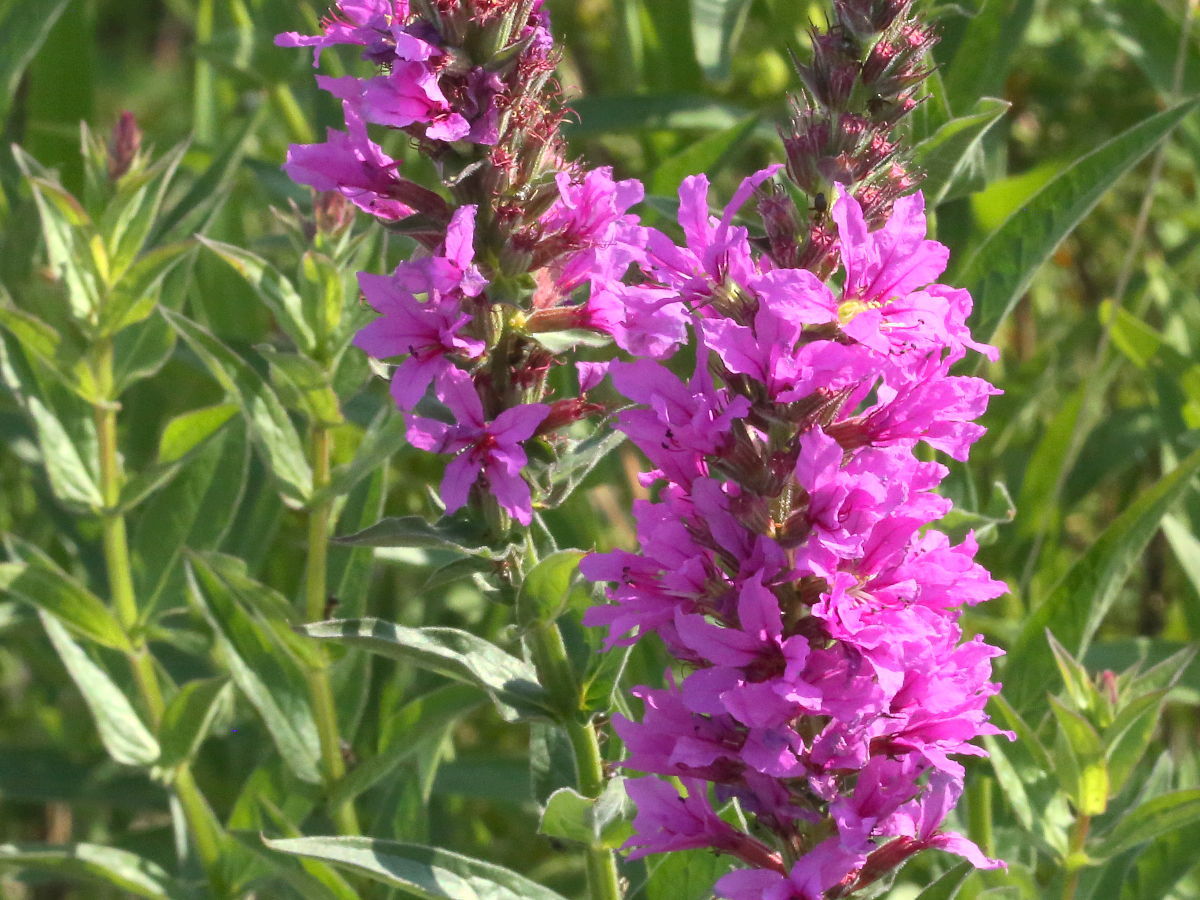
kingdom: Plantae
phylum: Tracheophyta
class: Magnoliopsida
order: Myrtales
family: Lythraceae
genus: Lythrum
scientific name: Lythrum salicaria
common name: Purple loosestrife
